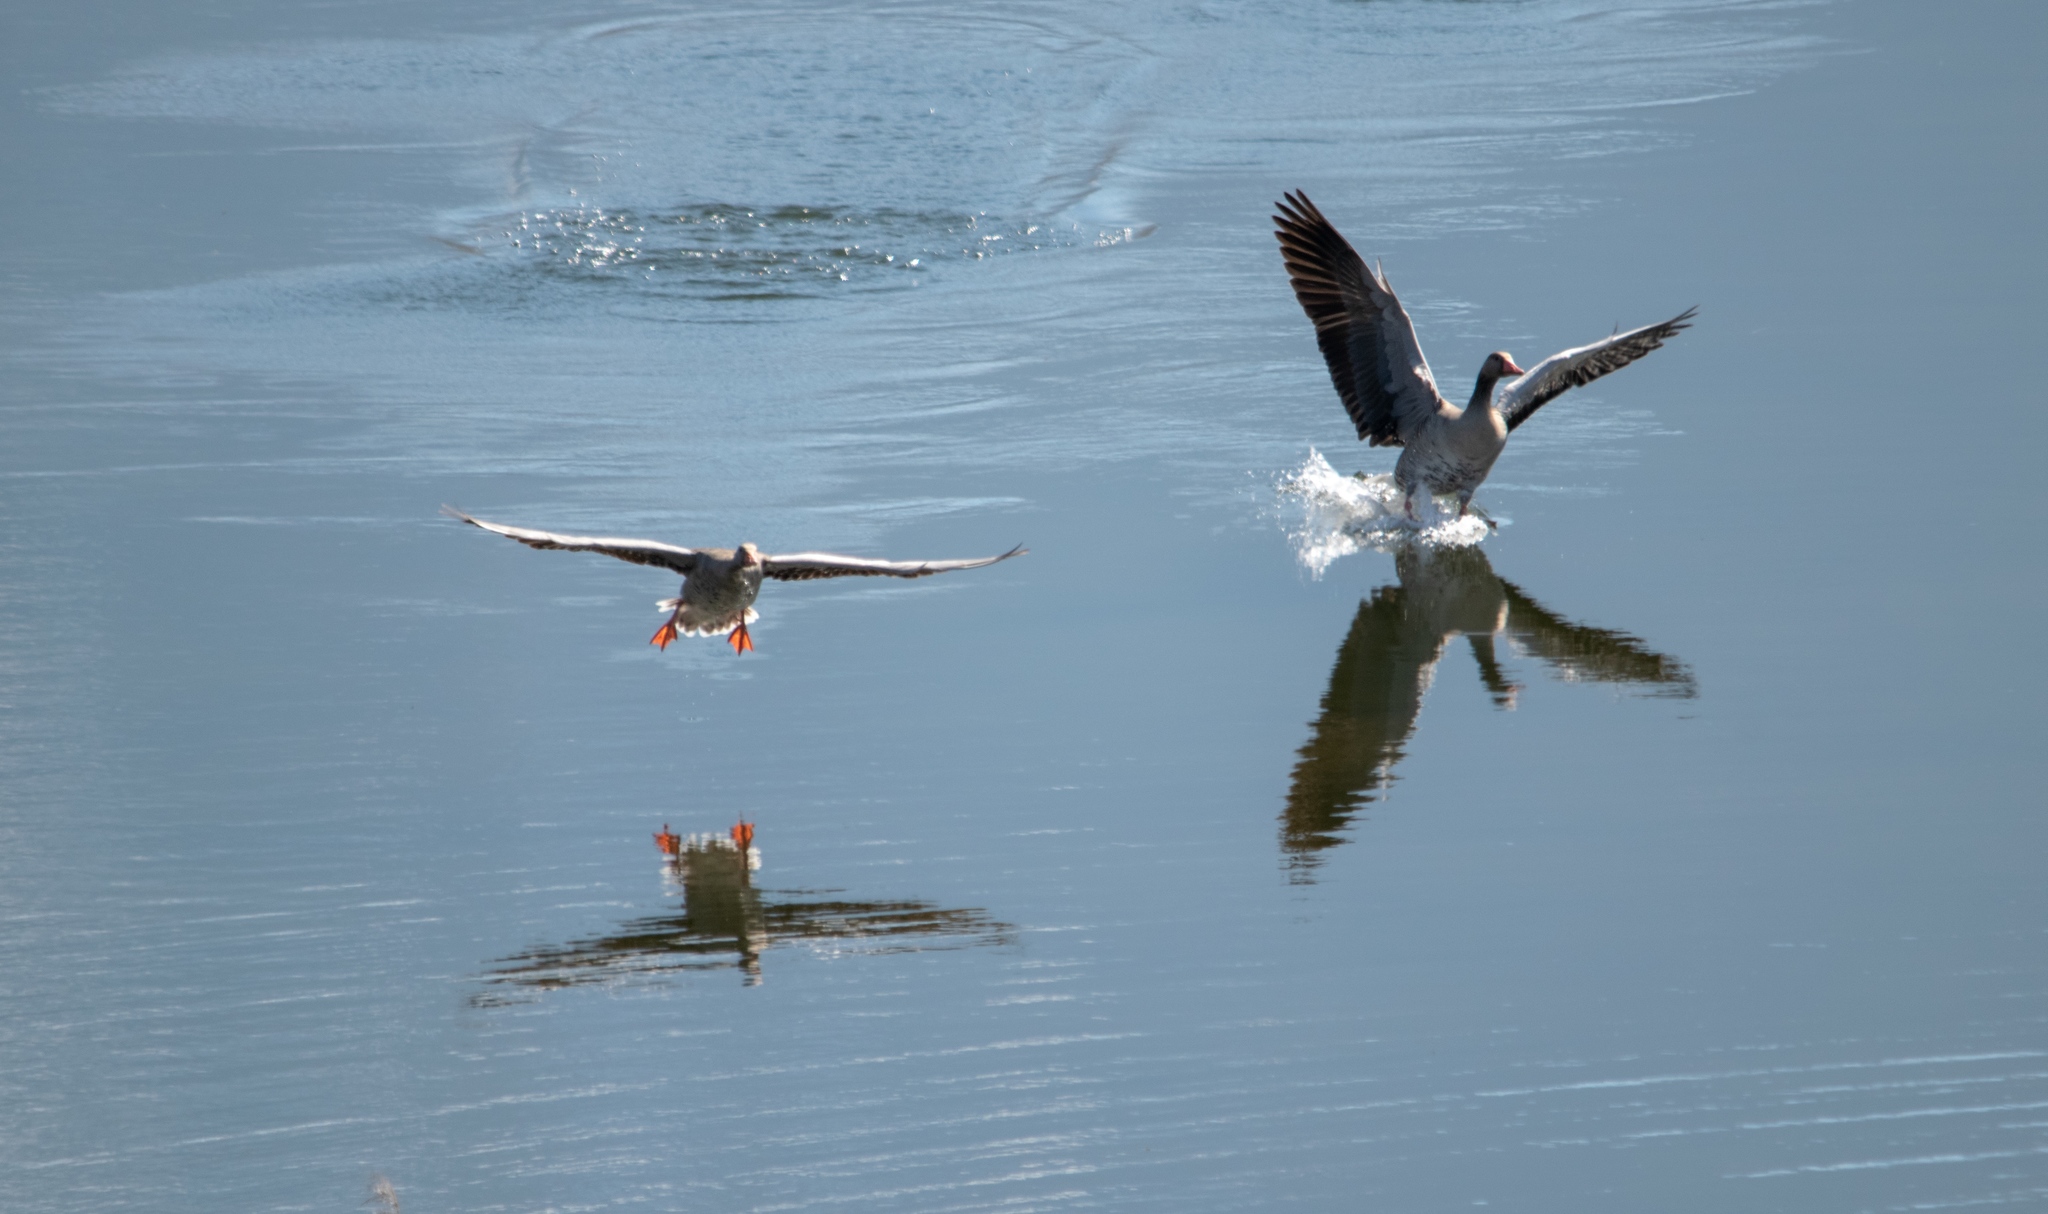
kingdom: Animalia
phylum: Chordata
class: Aves
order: Anseriformes
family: Anatidae
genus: Anser
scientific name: Anser anser
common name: Greylag goose
